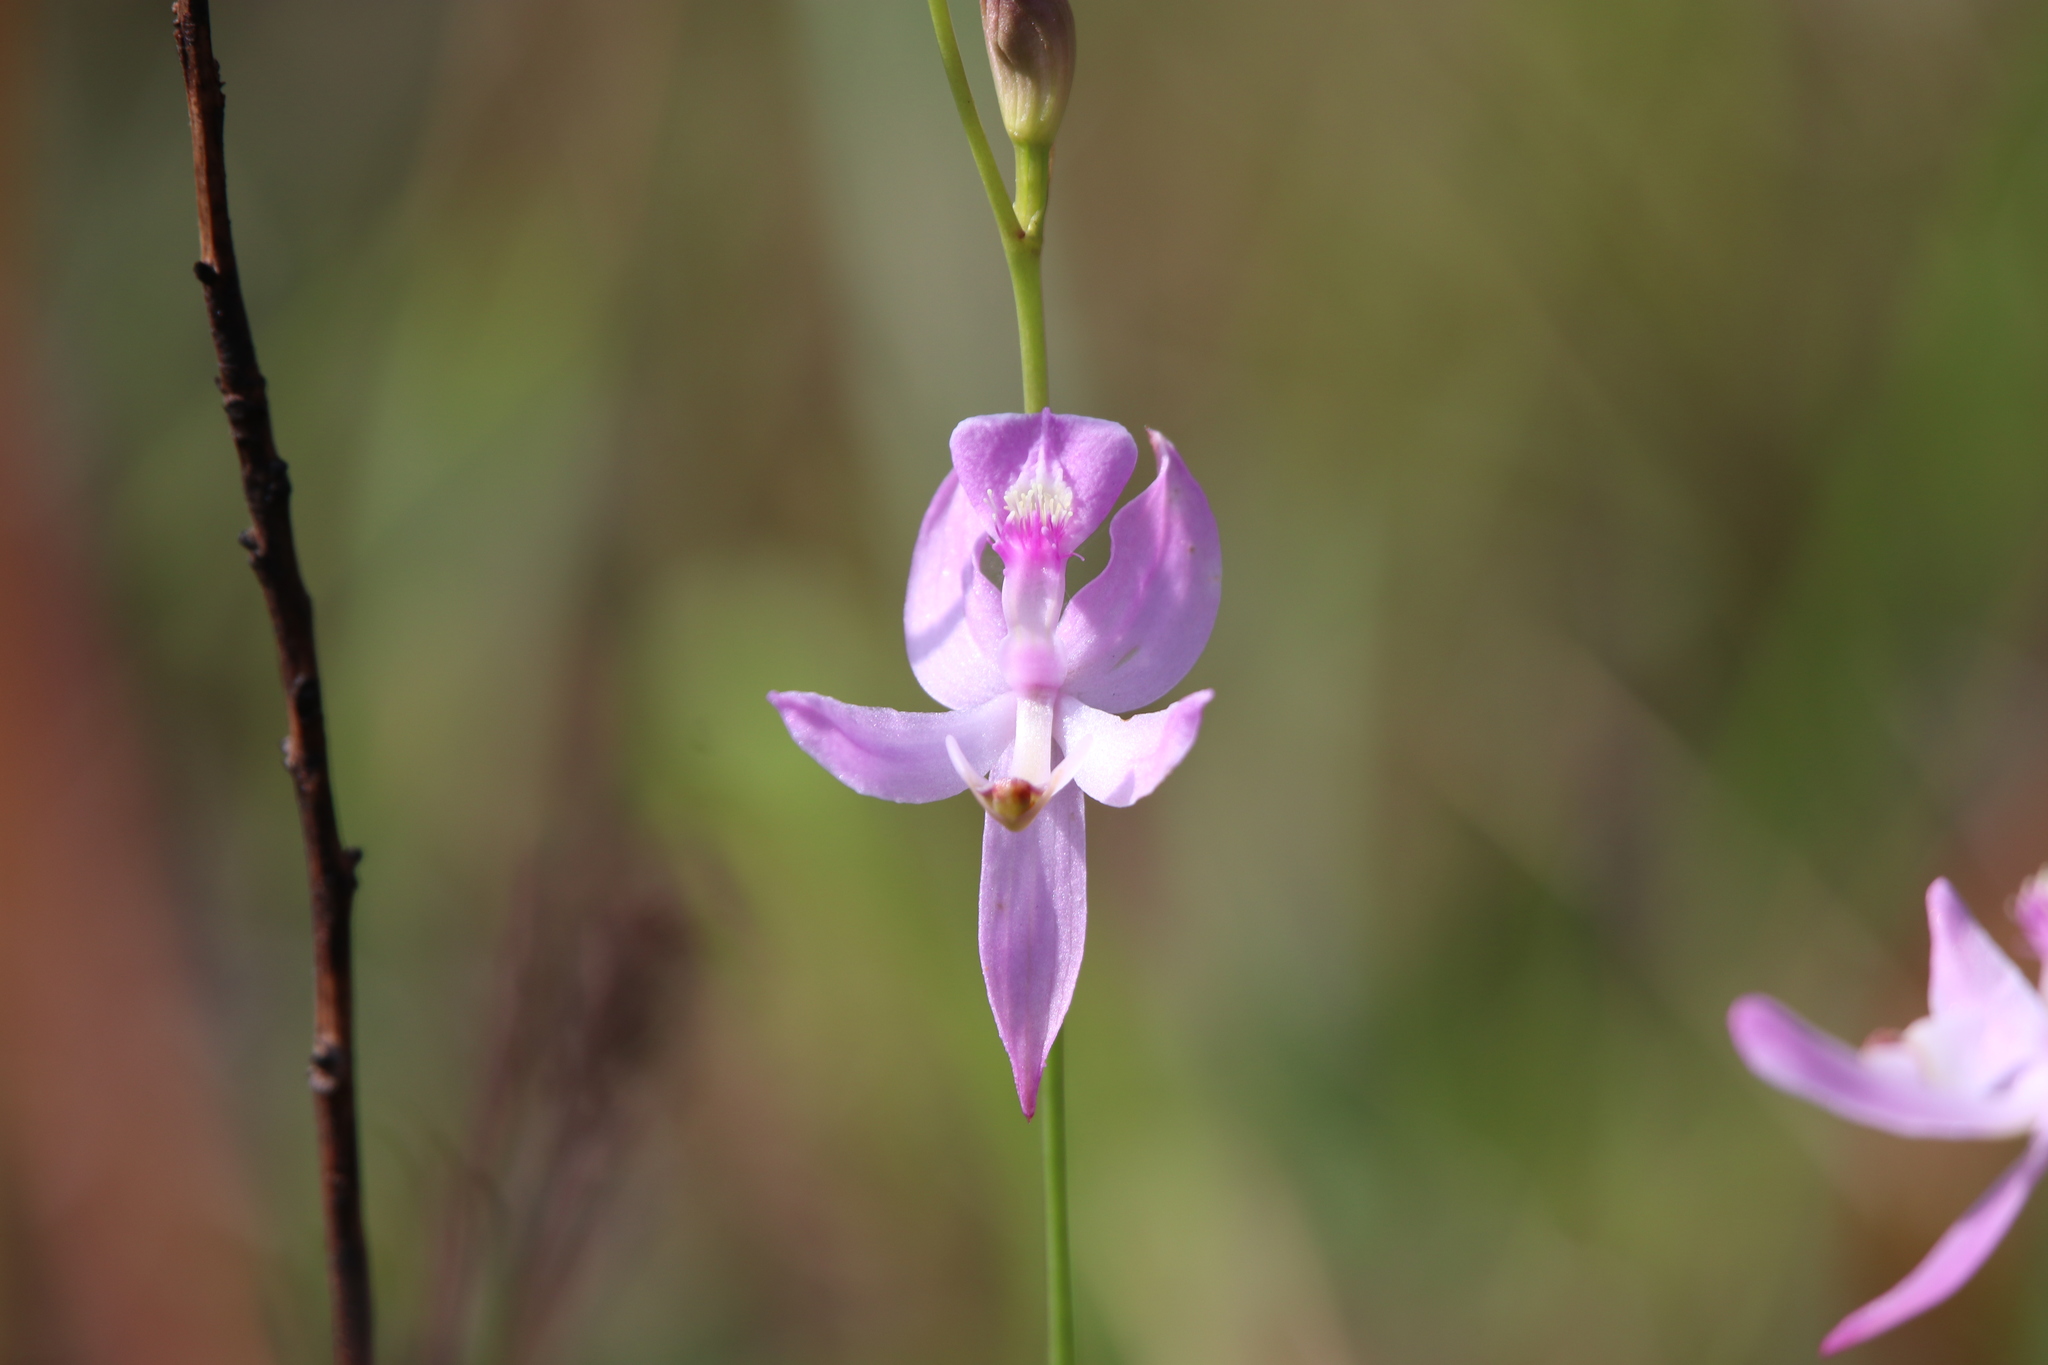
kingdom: Plantae
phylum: Tracheophyta
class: Liliopsida
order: Asparagales
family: Orchidaceae
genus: Calopogon
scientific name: Calopogon pallidus
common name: Pale grasspink
